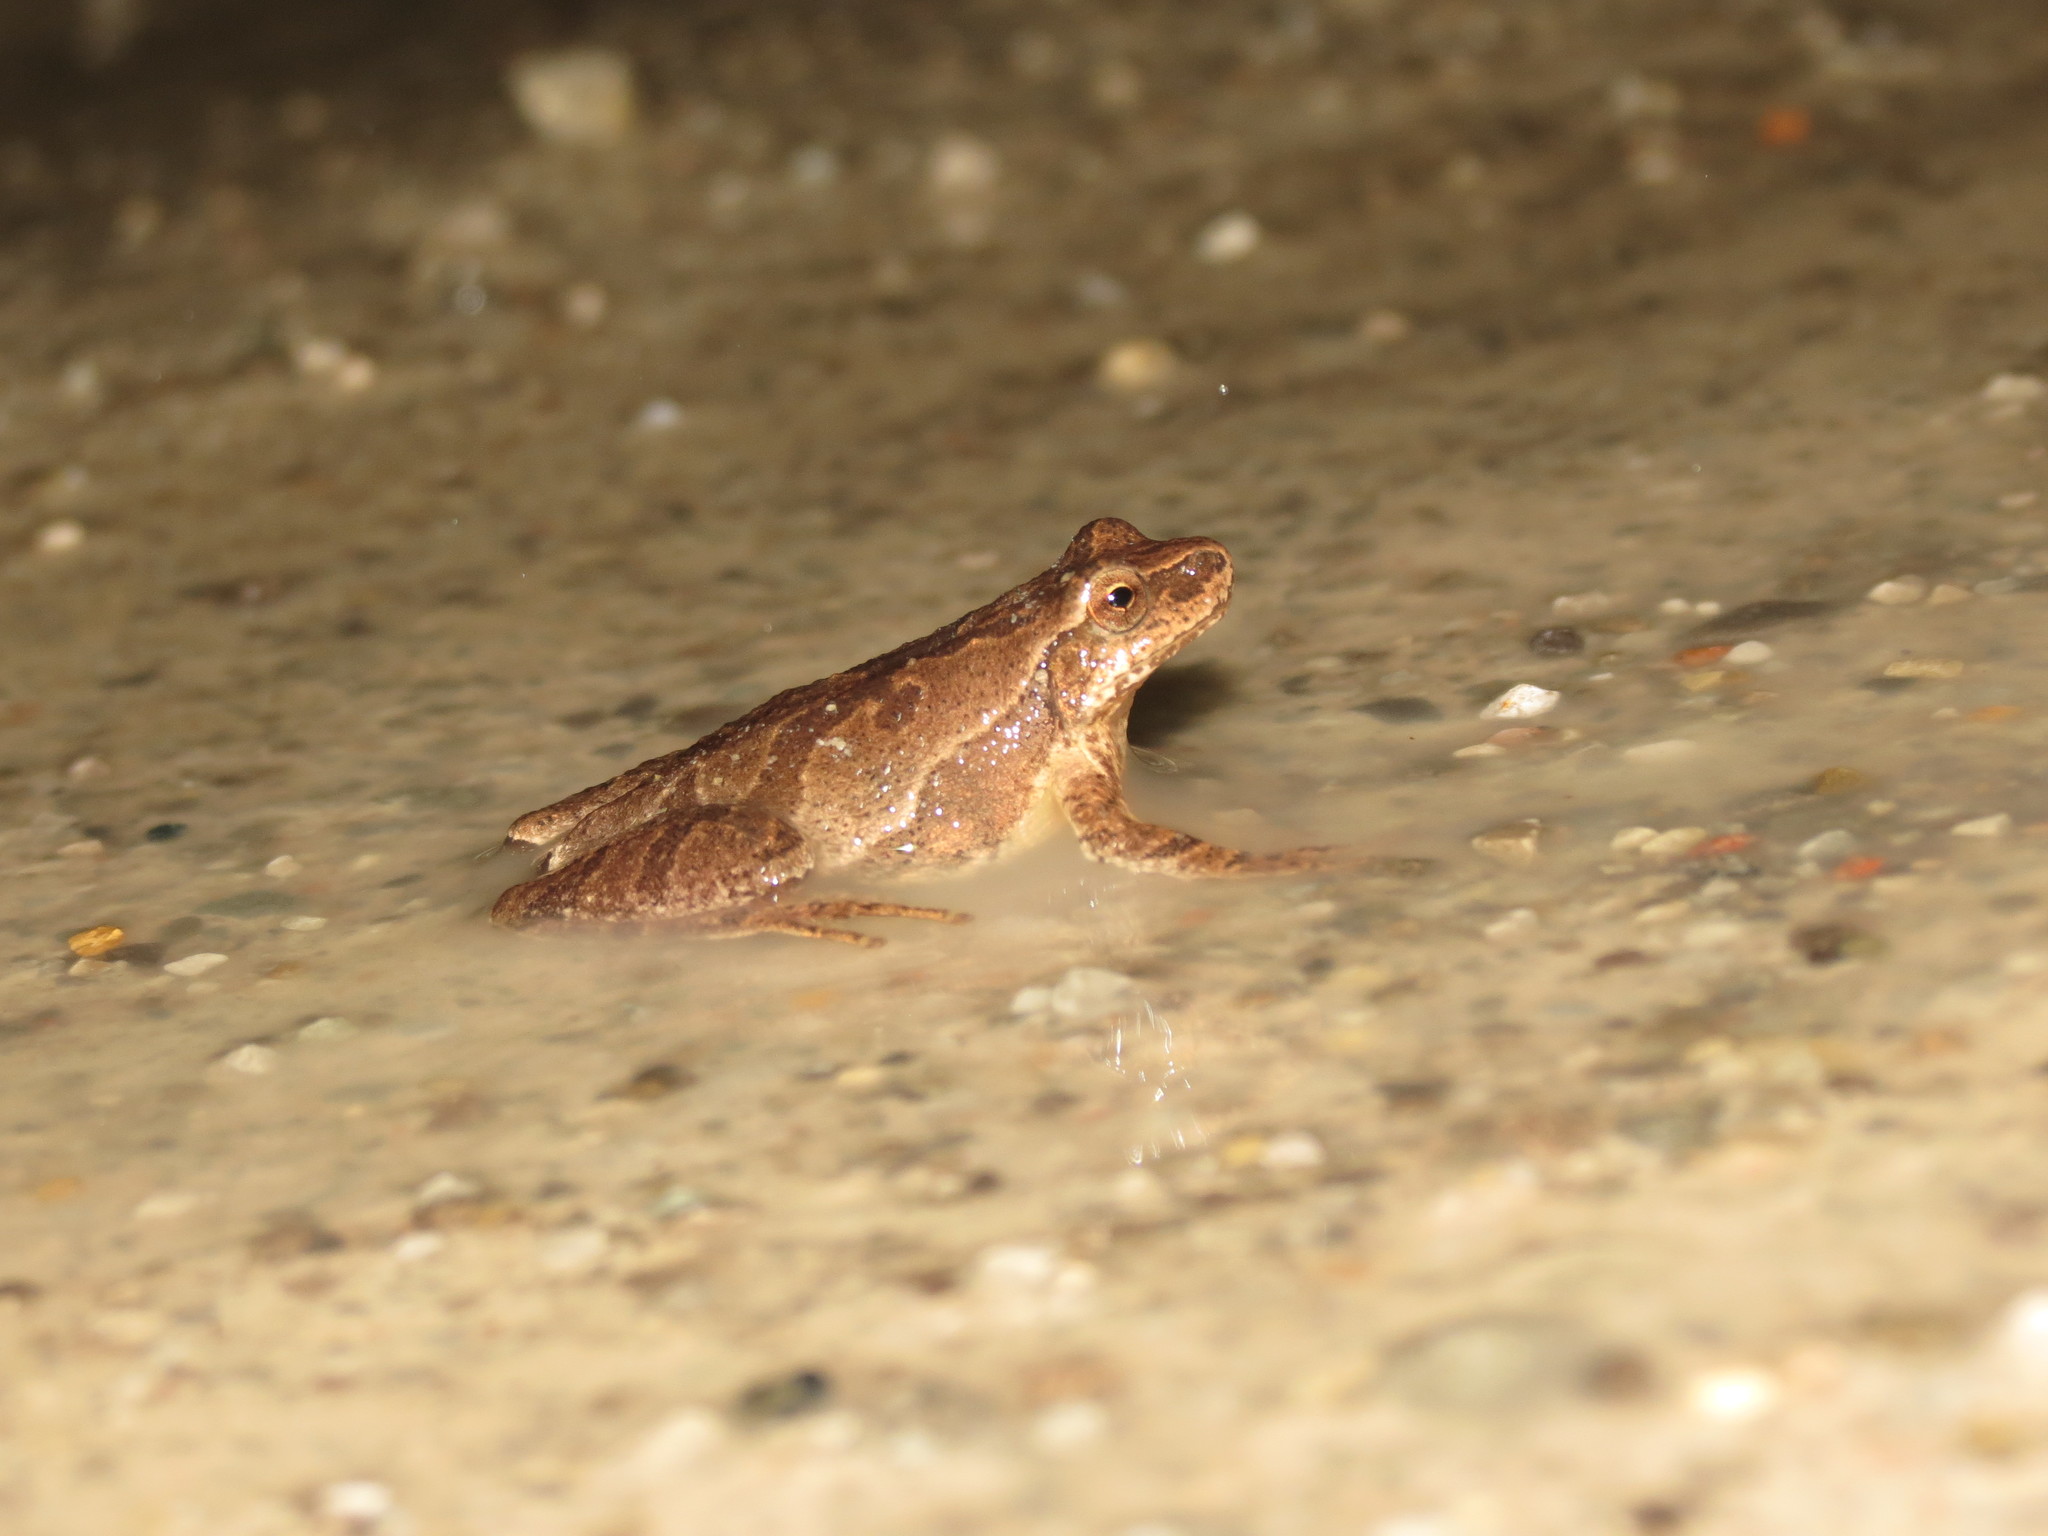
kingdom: Animalia
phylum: Chordata
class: Amphibia
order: Anura
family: Hylidae
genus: Pseudacris
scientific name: Pseudacris crucifer
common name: Spring peeper
